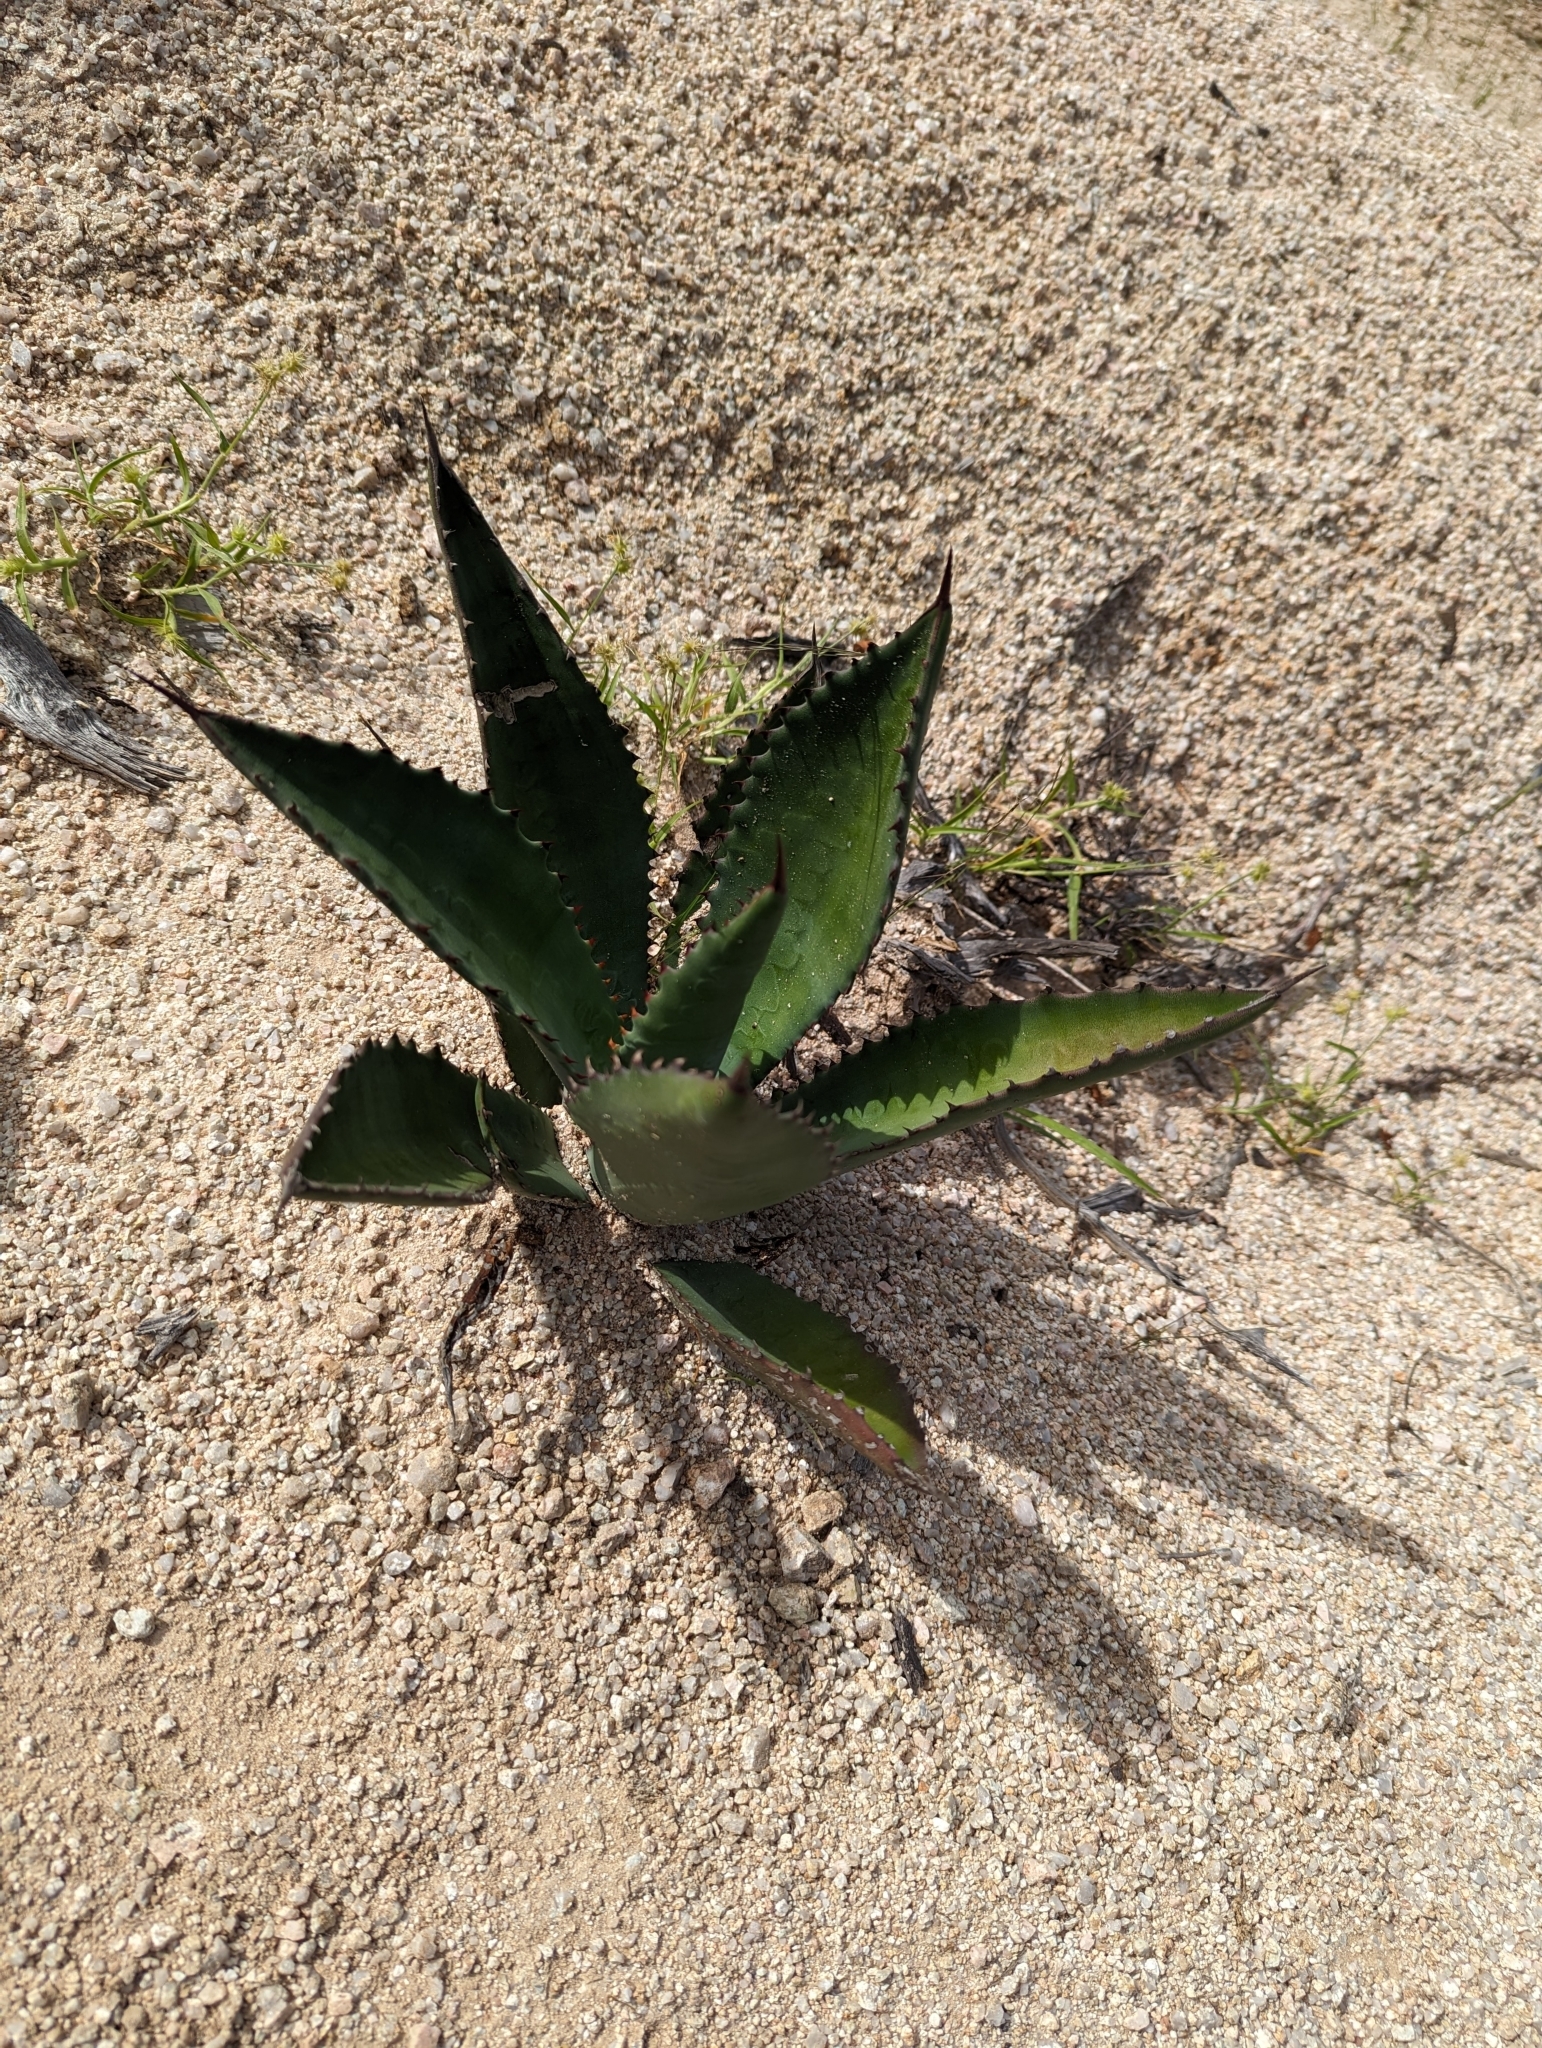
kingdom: Plantae
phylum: Tracheophyta
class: Liliopsida
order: Asparagales
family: Asparagaceae
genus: Agave
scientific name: Agave aurea
